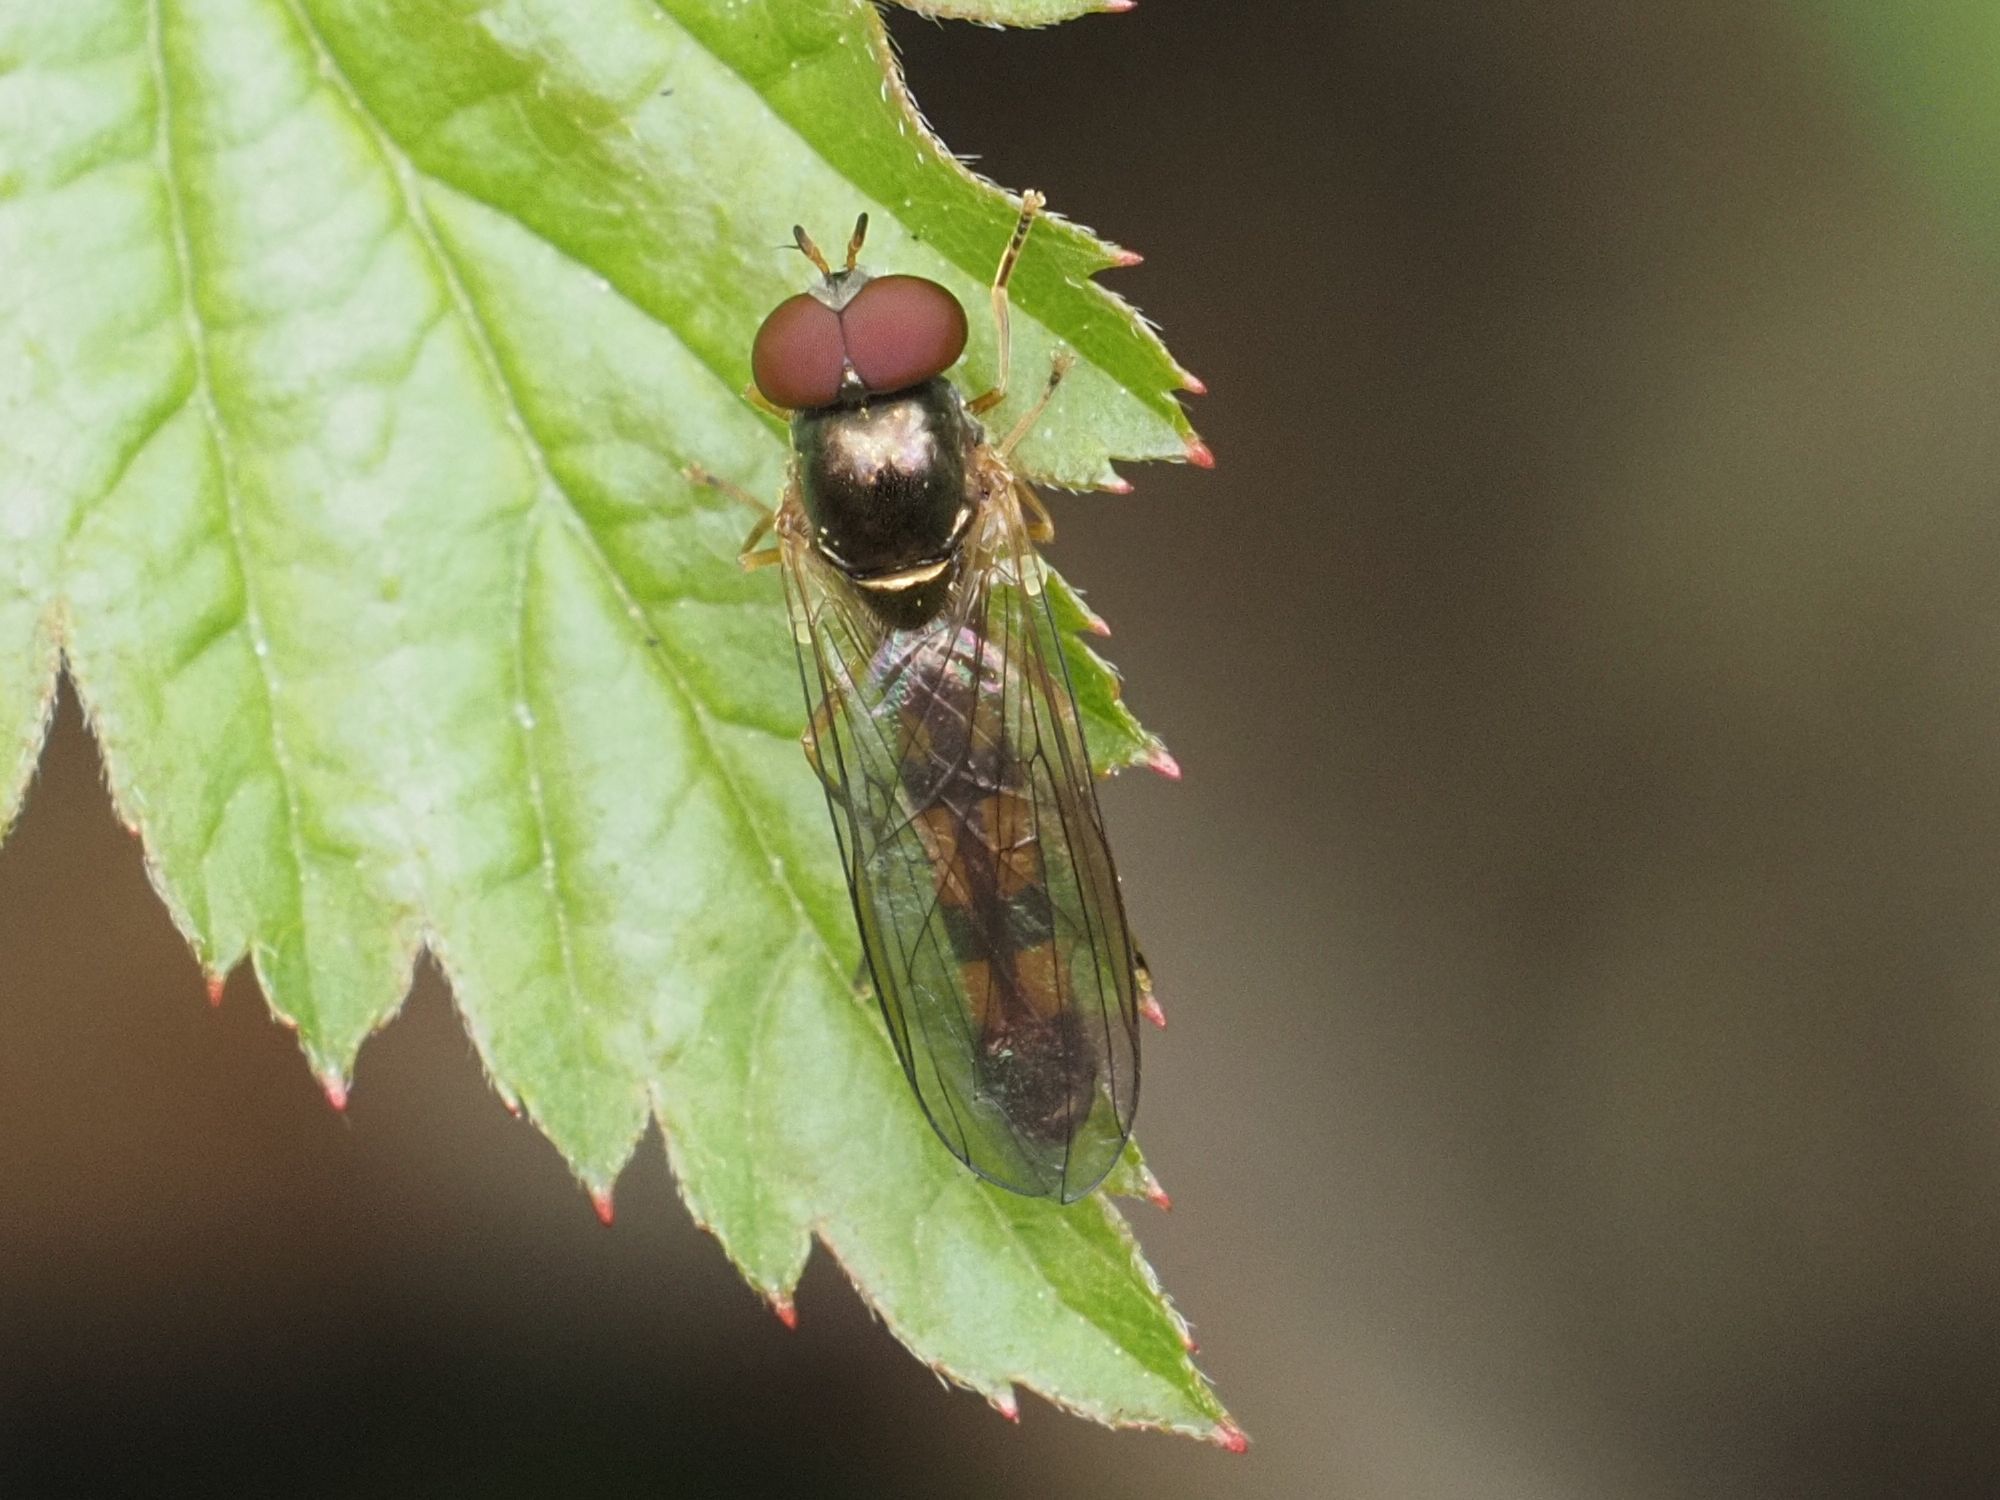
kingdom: Animalia
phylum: Arthropoda
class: Insecta
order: Diptera
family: Syrphidae
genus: Melanostoma
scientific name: Melanostoma scalare
